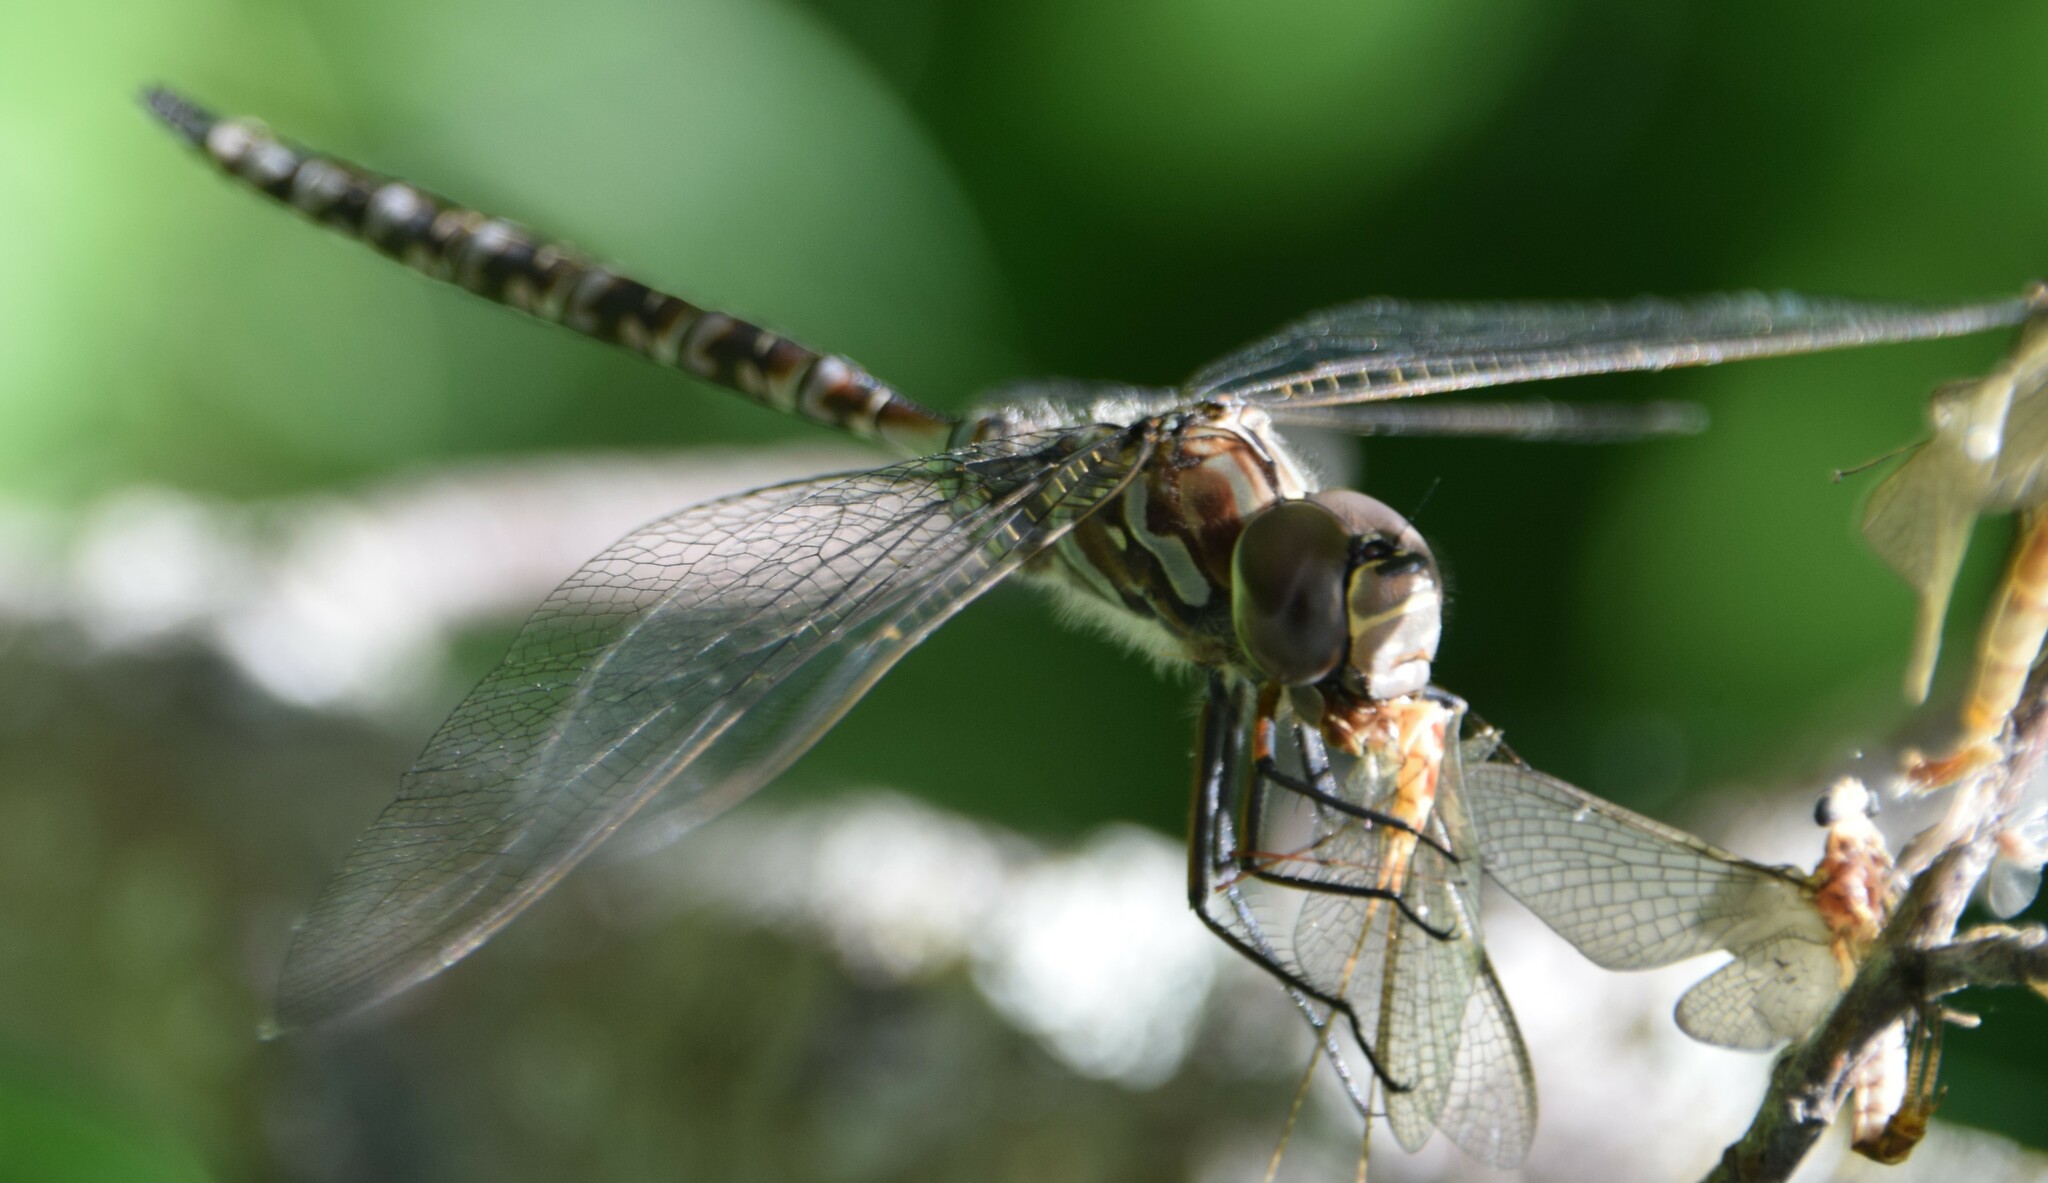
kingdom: Animalia
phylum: Arthropoda
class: Insecta
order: Odonata
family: Aeshnidae
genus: Aeshna
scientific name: Aeshna canadensis
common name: Canada darner
